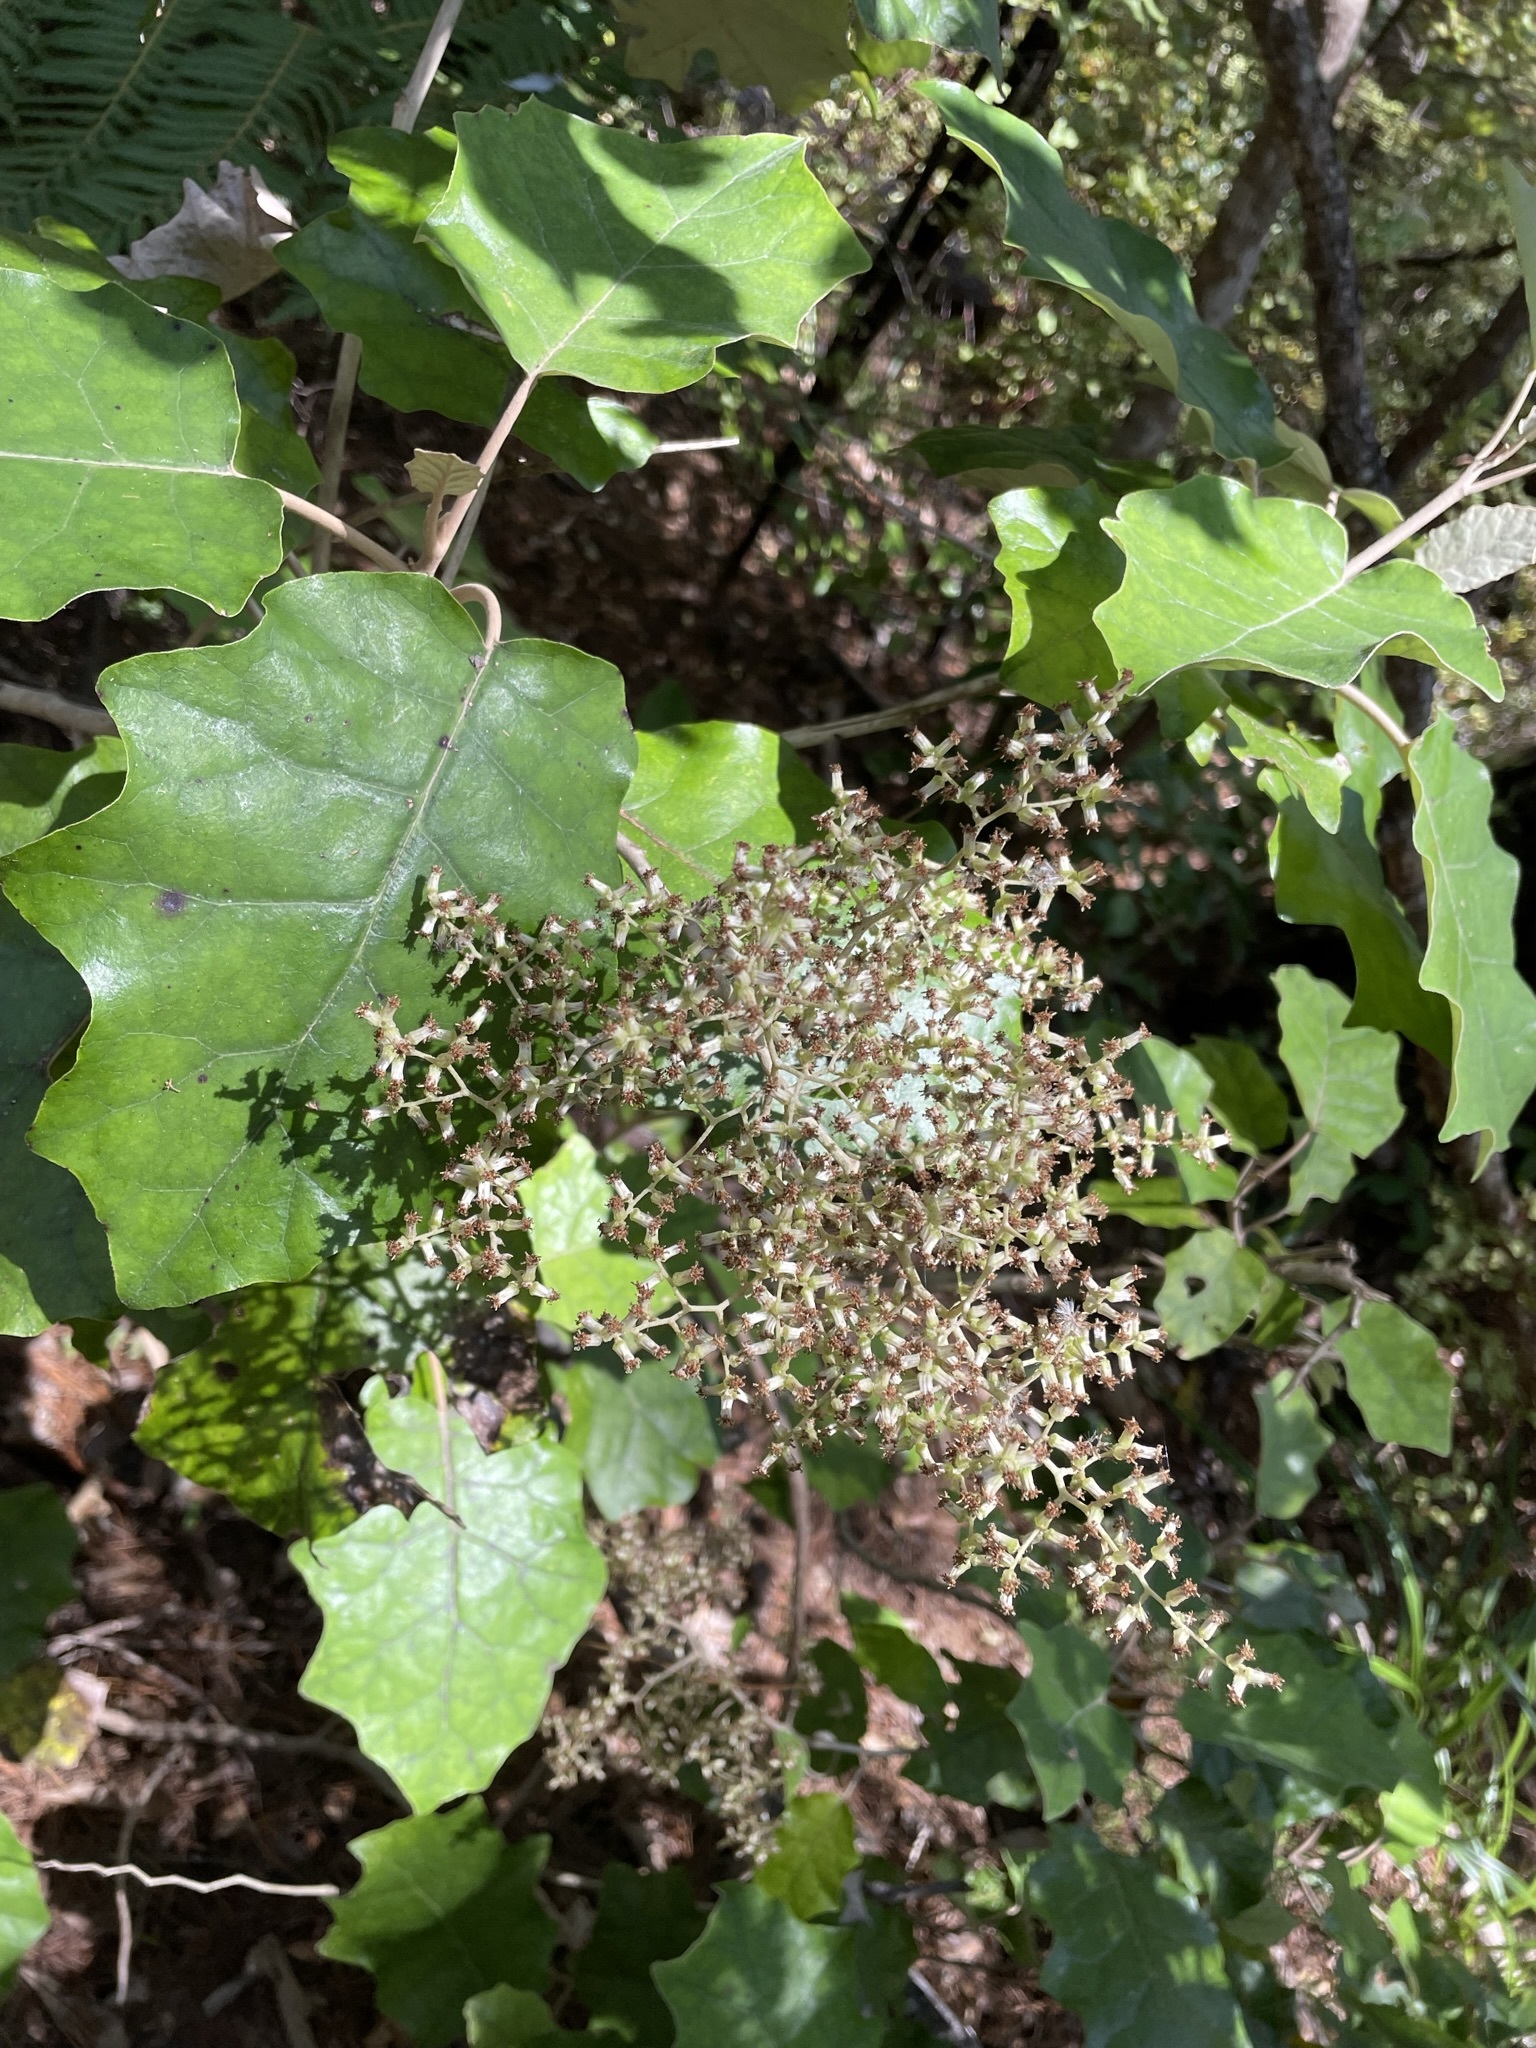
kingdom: Plantae
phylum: Tracheophyta
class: Magnoliopsida
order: Asterales
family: Asteraceae
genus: Brachyglottis
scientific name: Brachyglottis repanda
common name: Hedge ragwort
